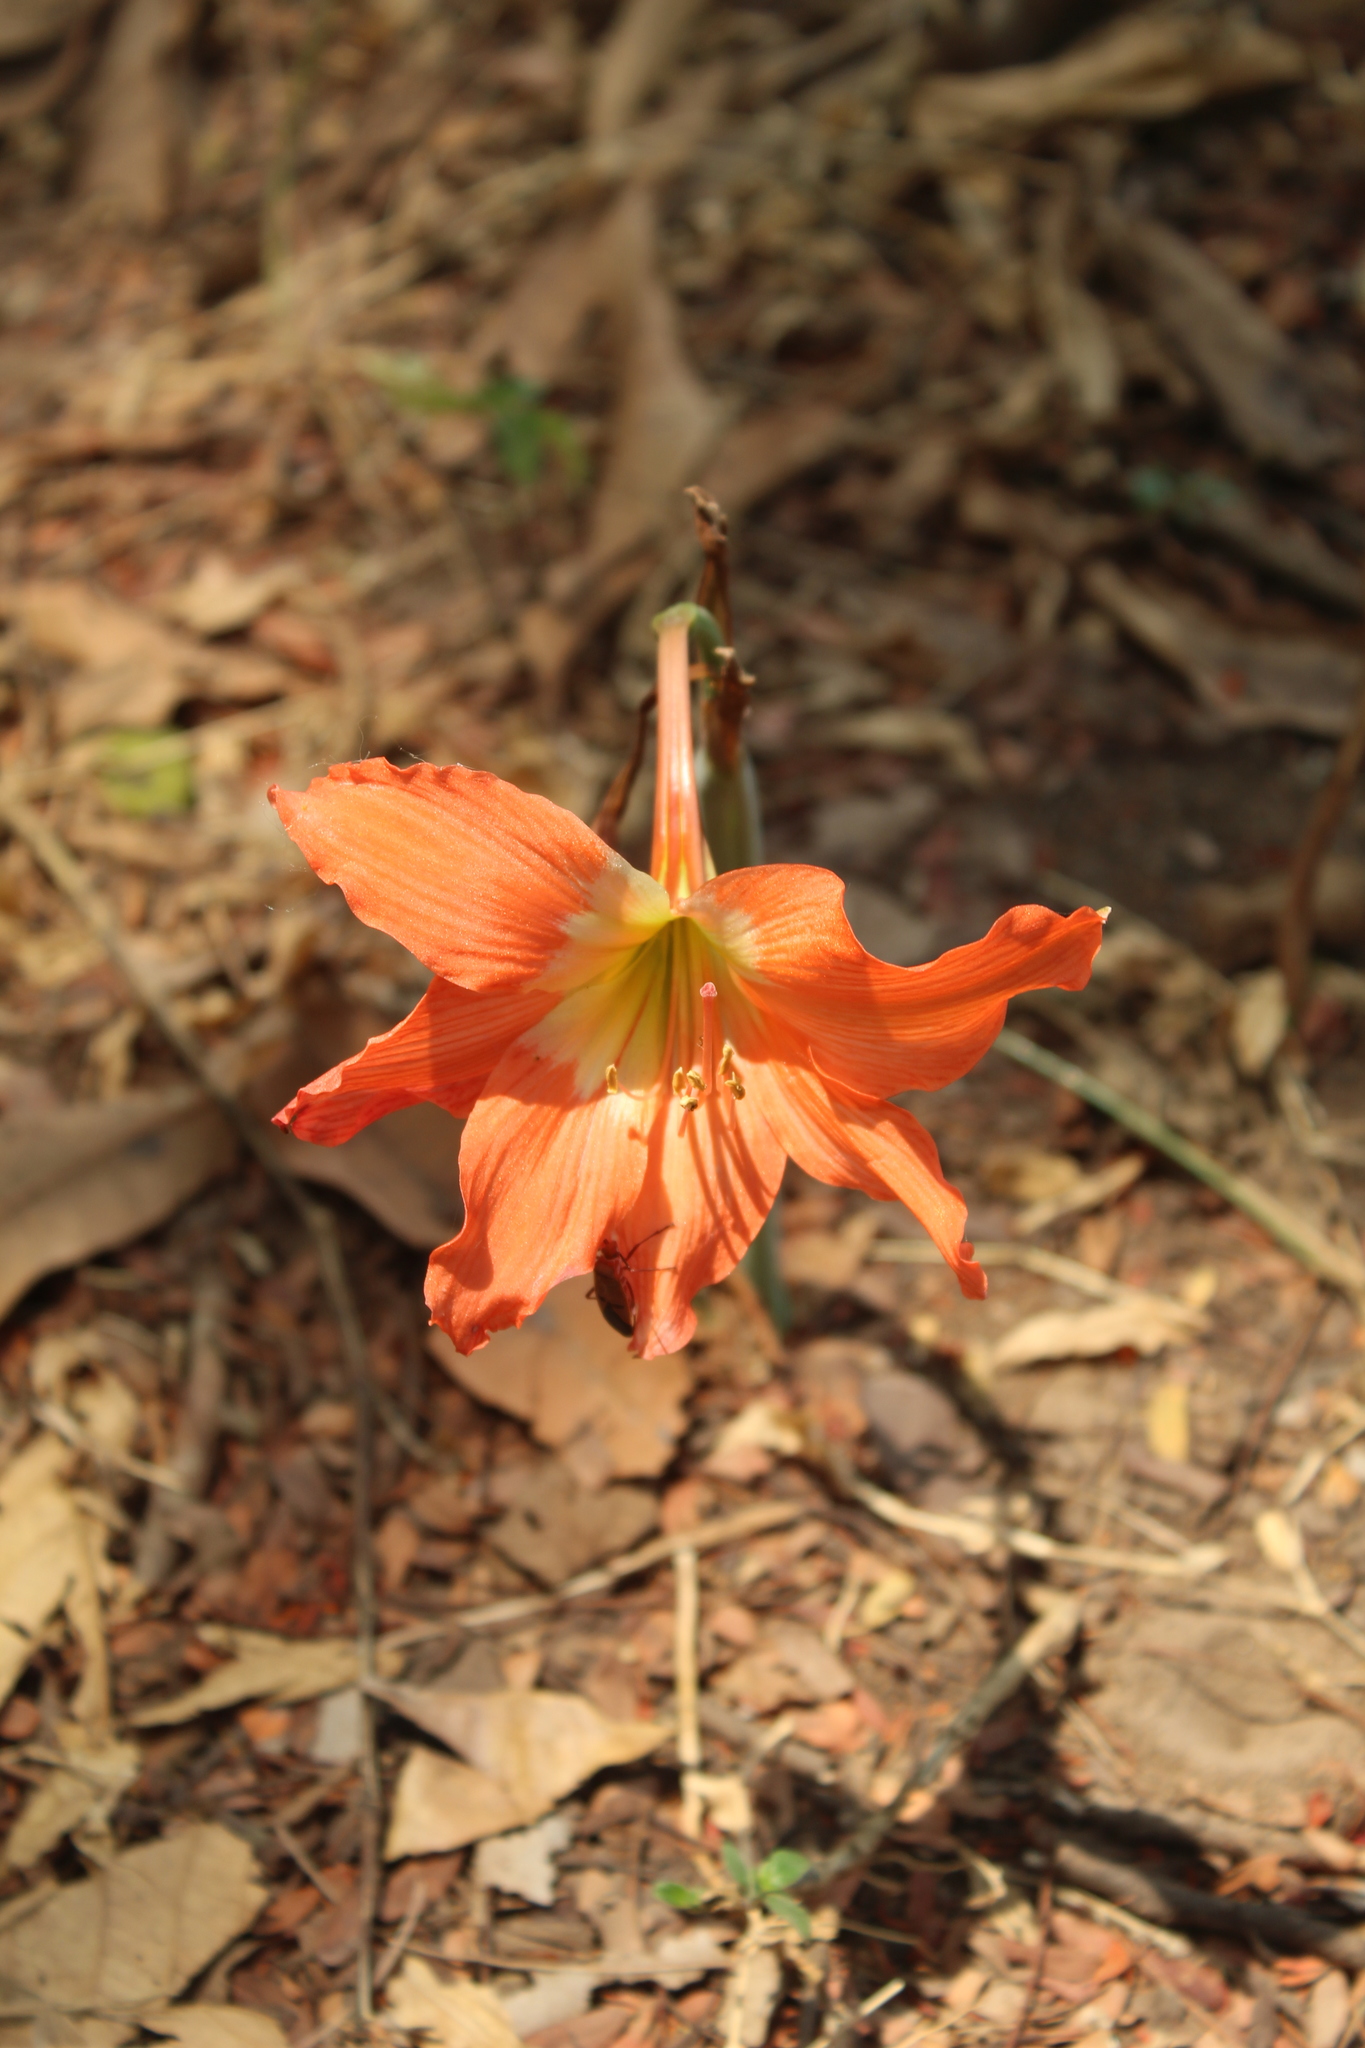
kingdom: Plantae
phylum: Tracheophyta
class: Liliopsida
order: Asparagales
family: Amaryllidaceae
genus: Hippeastrum
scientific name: Hippeastrum puniceum
